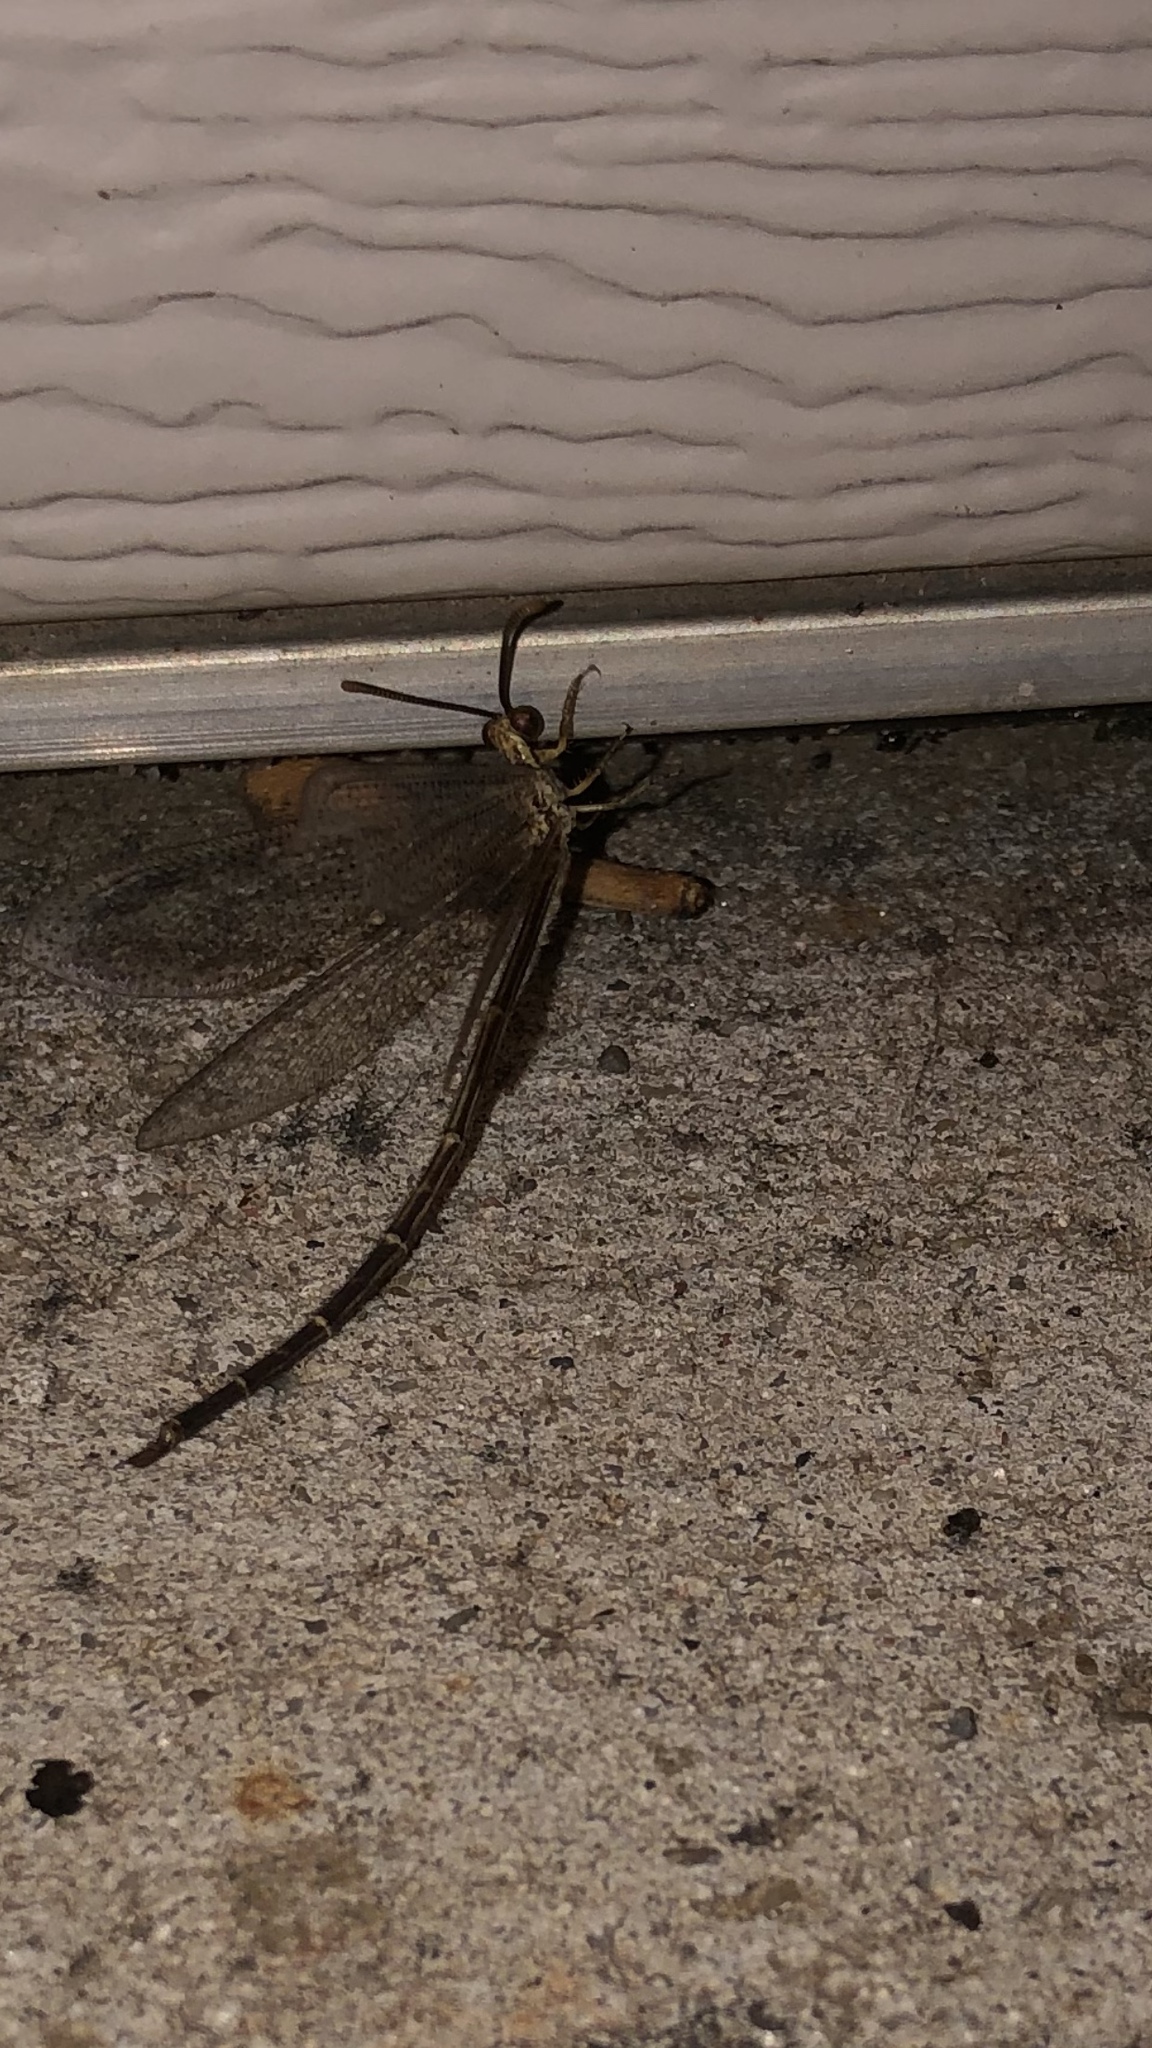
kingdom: Animalia
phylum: Arthropoda
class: Insecta
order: Neuroptera
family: Myrmeleontidae
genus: Brachynemurus
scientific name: Brachynemurus abdominalis
